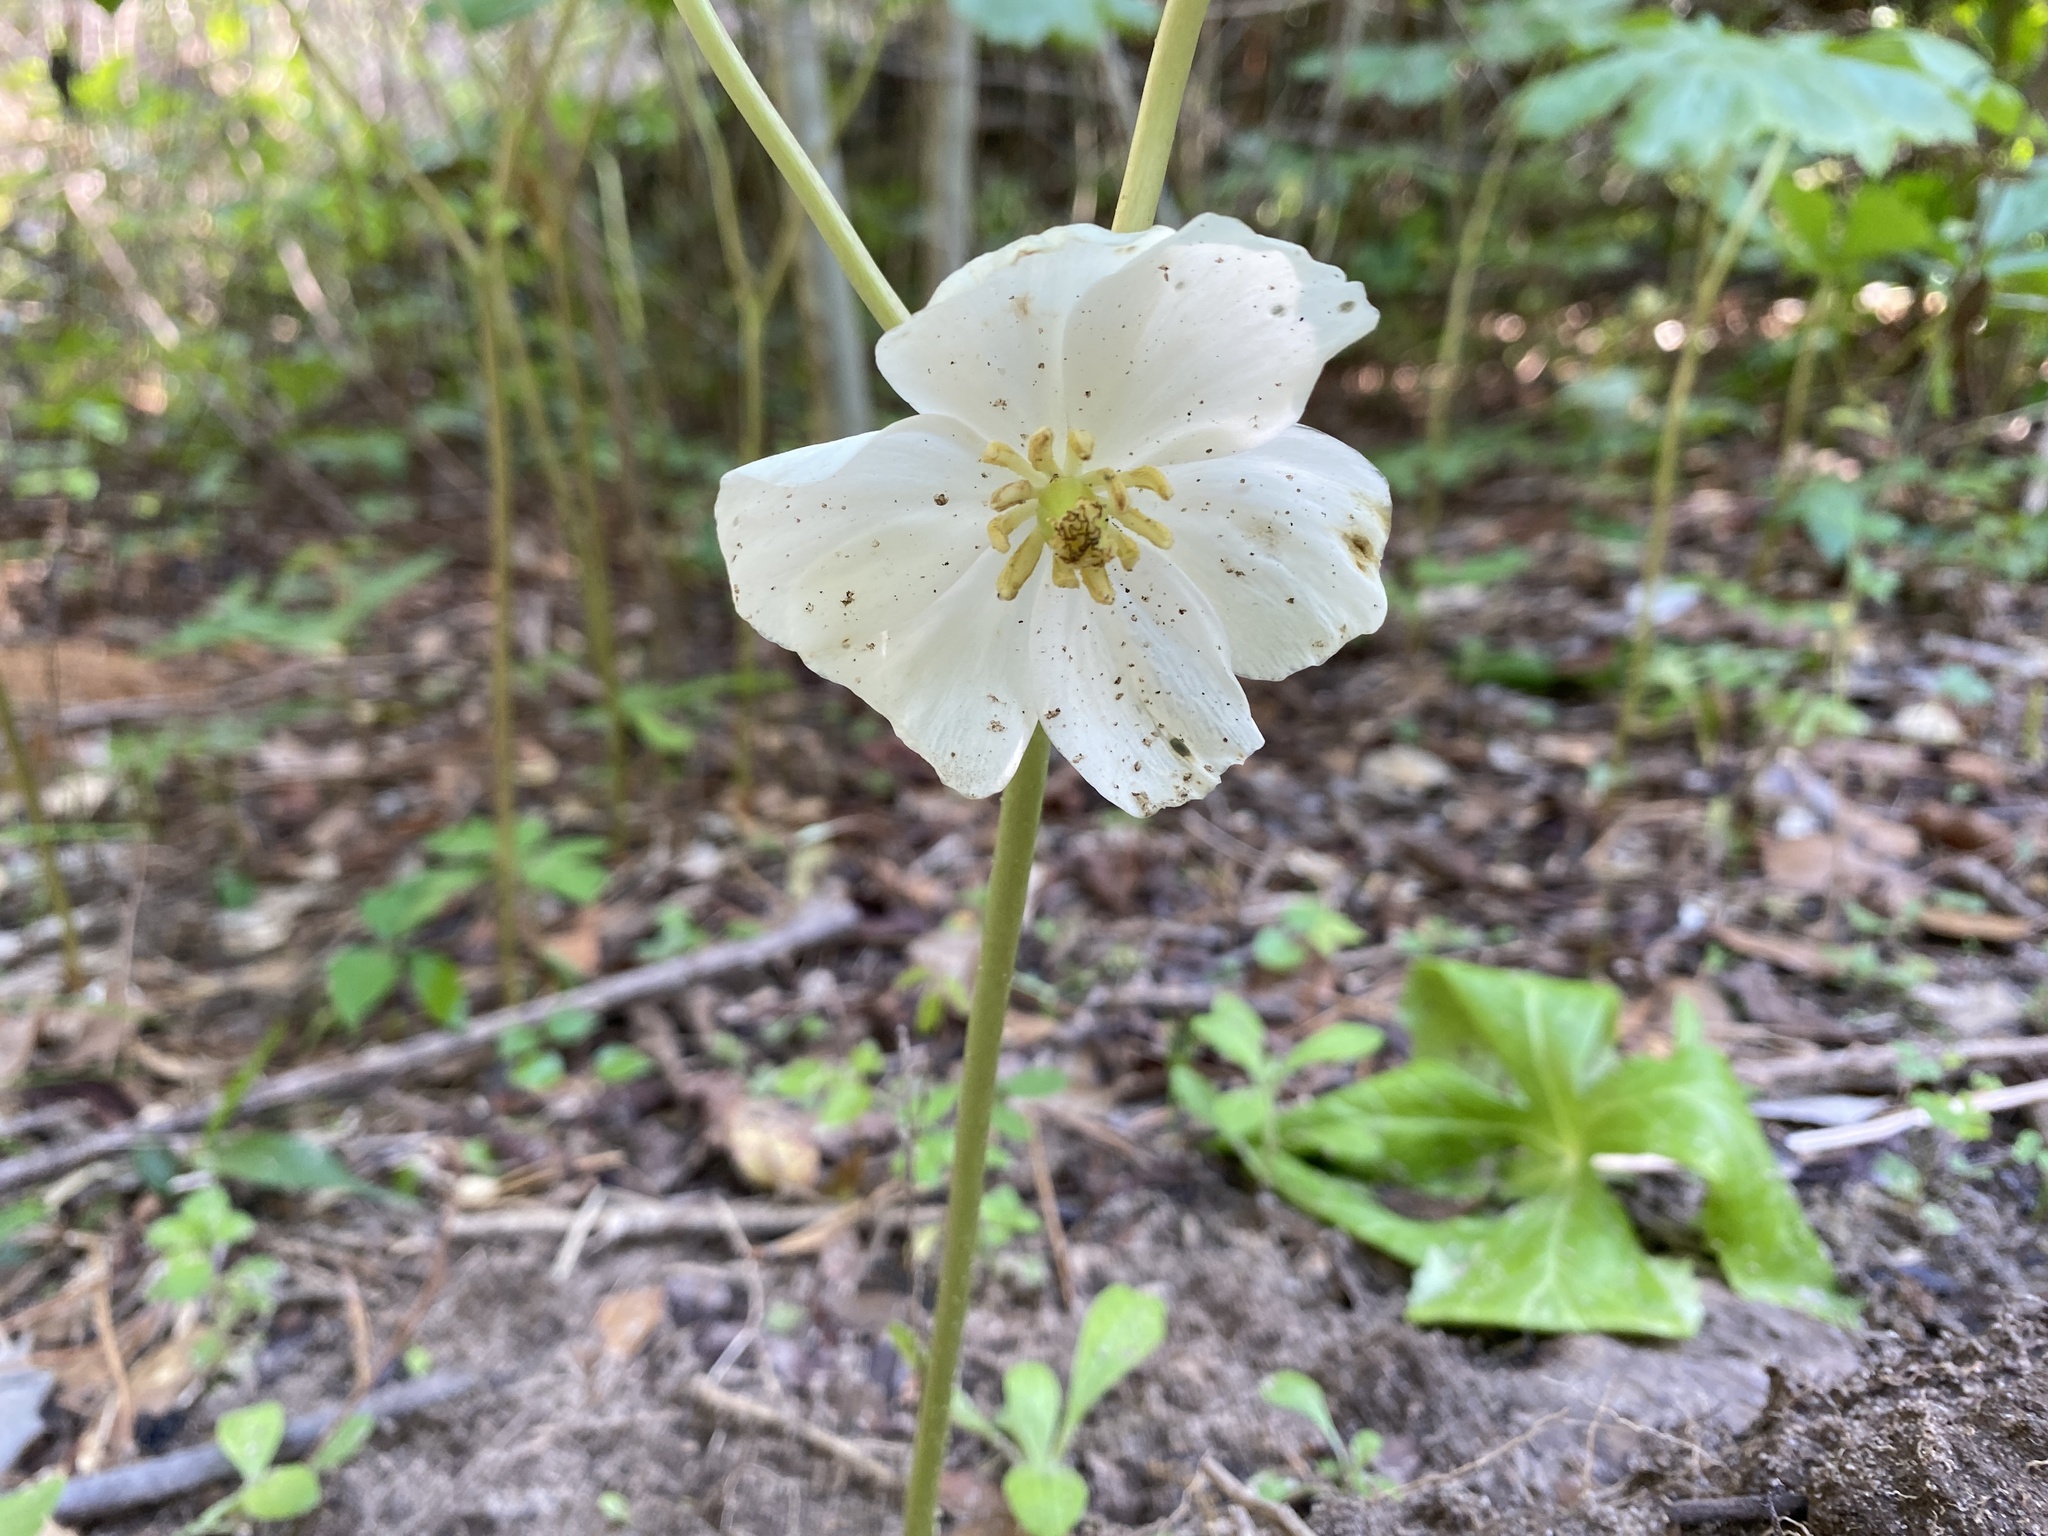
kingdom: Plantae
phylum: Tracheophyta
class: Magnoliopsida
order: Ranunculales
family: Berberidaceae
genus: Podophyllum
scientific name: Podophyllum peltatum
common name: Wild mandrake
